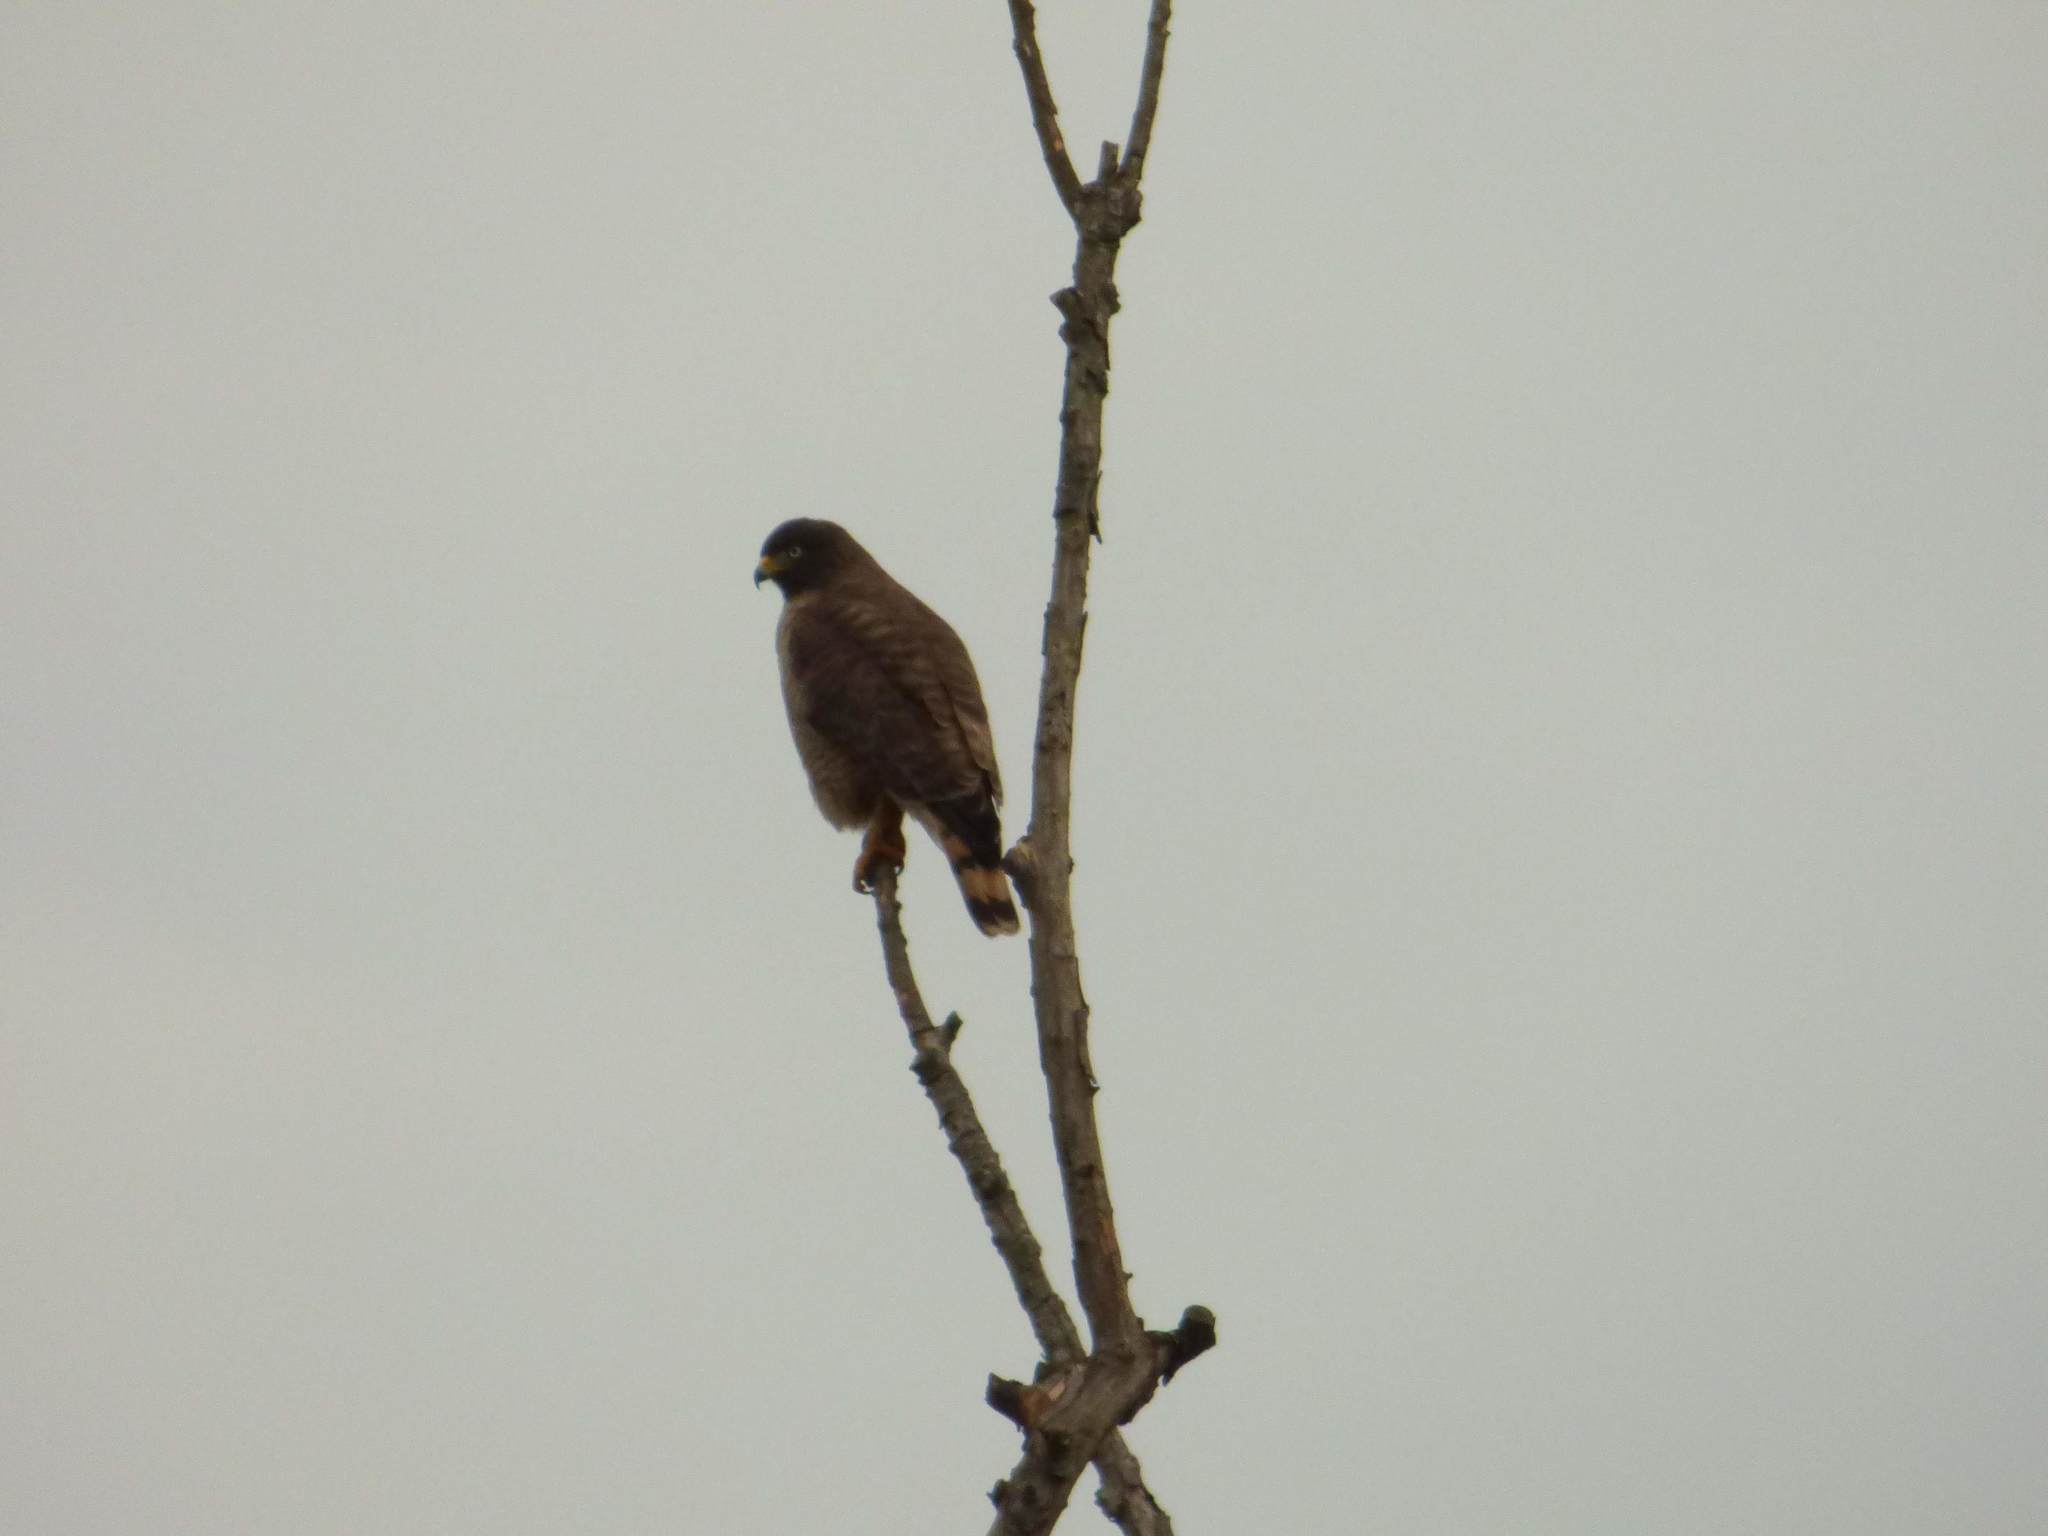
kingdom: Animalia
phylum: Chordata
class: Aves
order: Accipitriformes
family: Accipitridae
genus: Rupornis
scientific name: Rupornis magnirostris
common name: Roadside hawk
